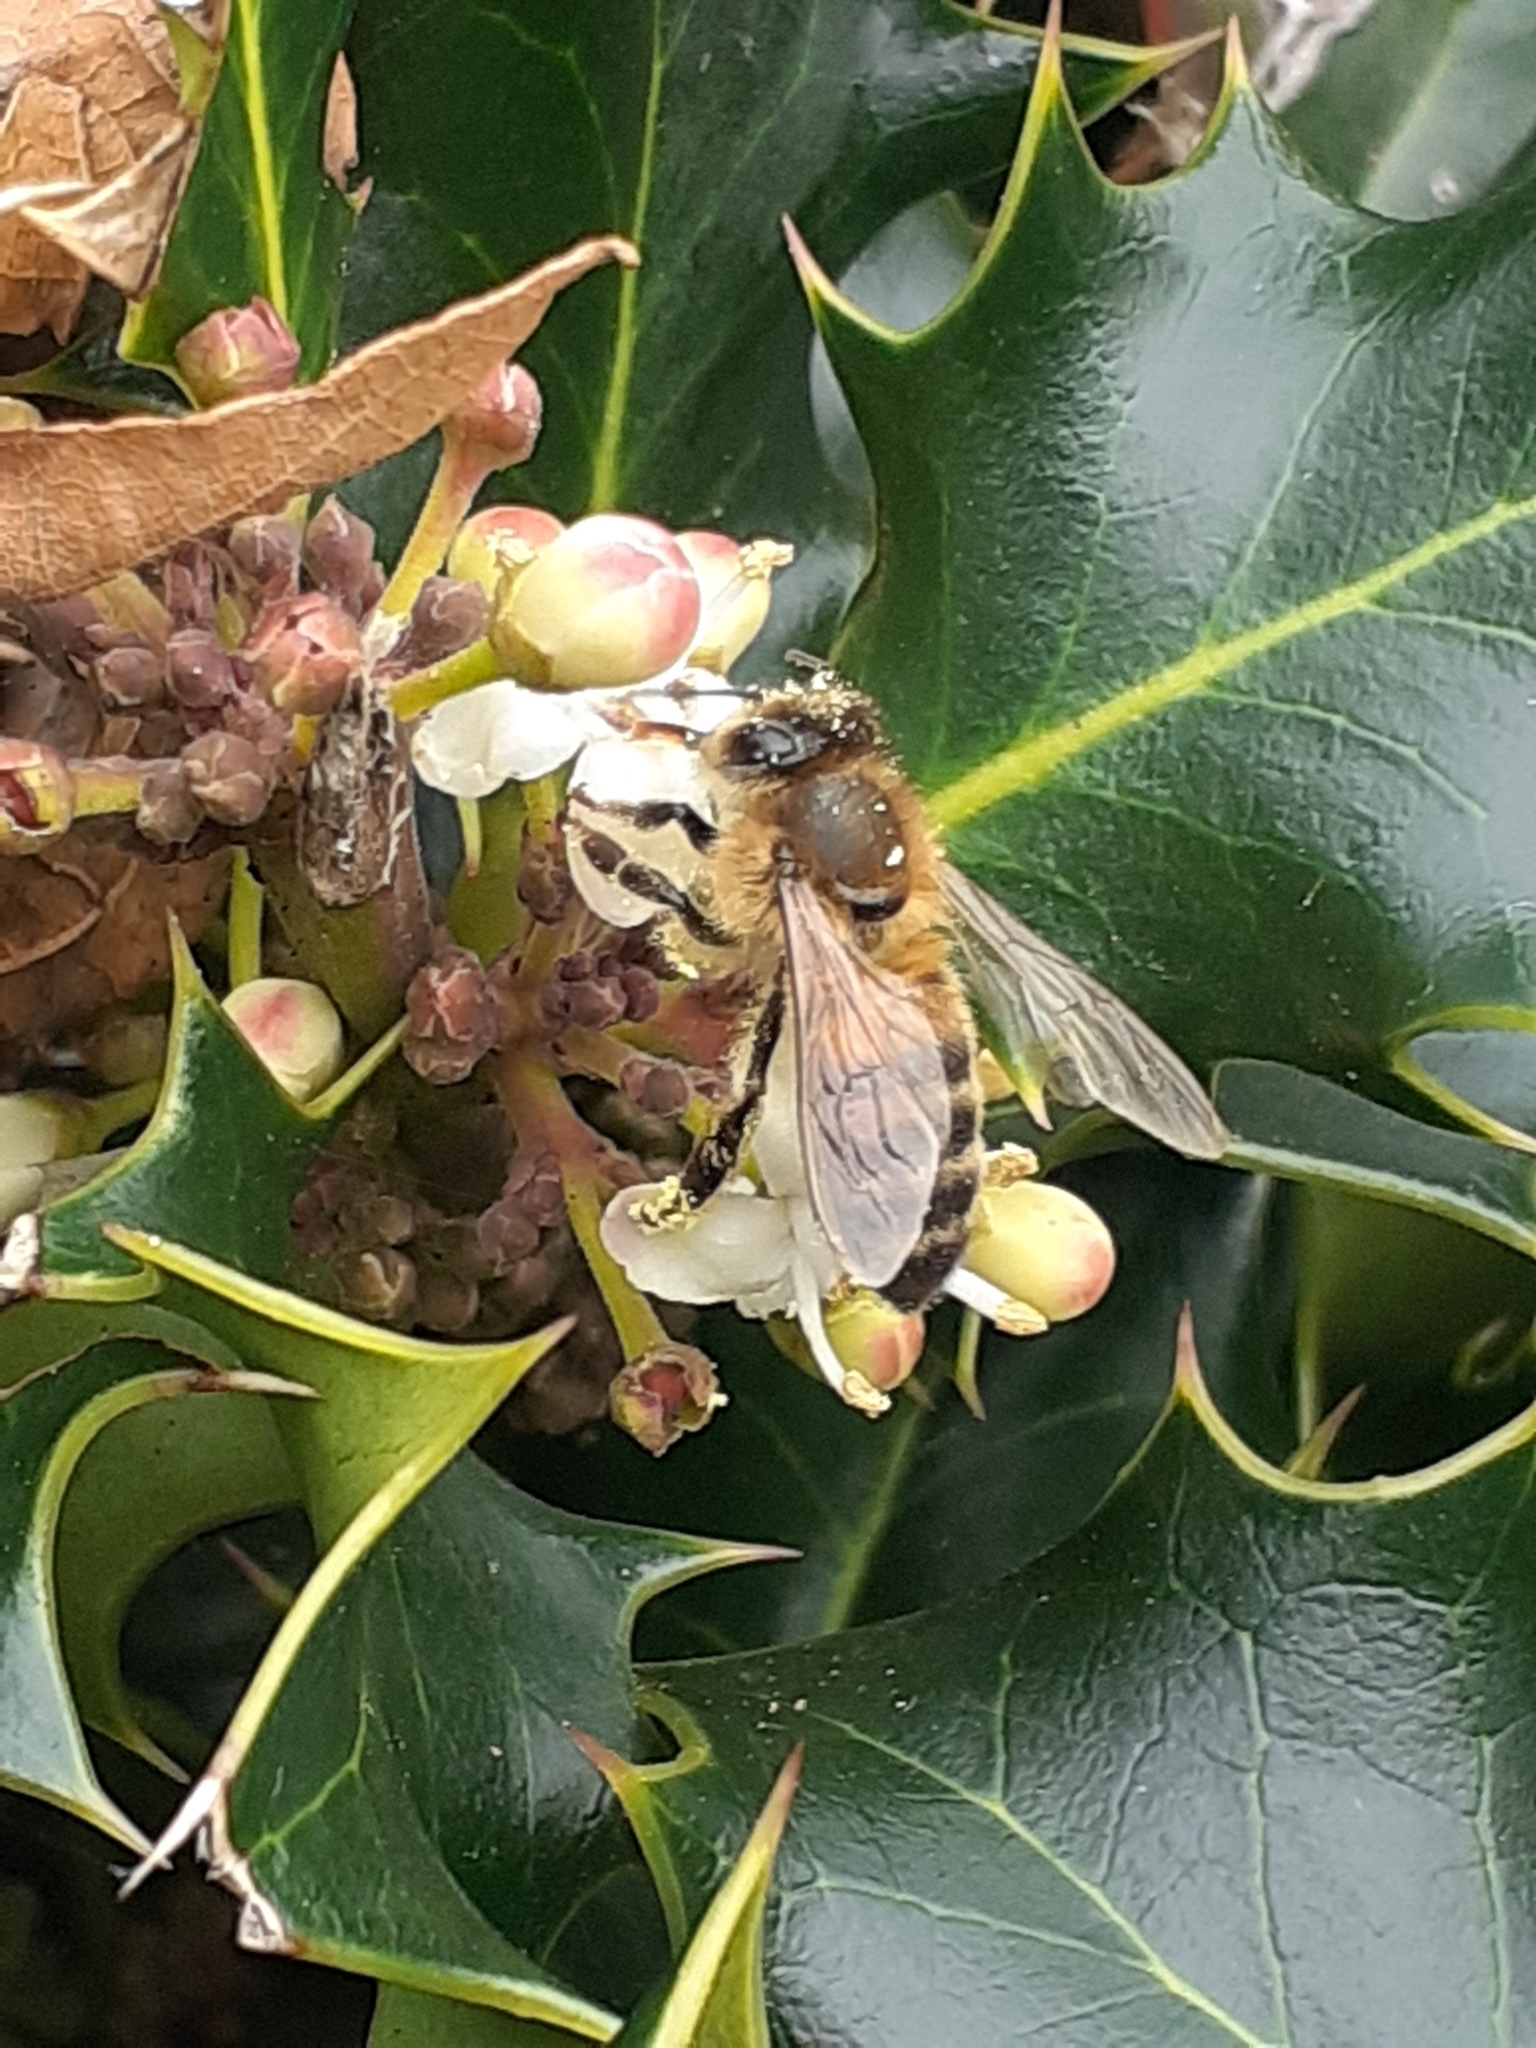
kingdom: Animalia
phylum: Arthropoda
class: Insecta
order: Hymenoptera
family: Apidae
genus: Apis
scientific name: Apis mellifera
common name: Honey bee
